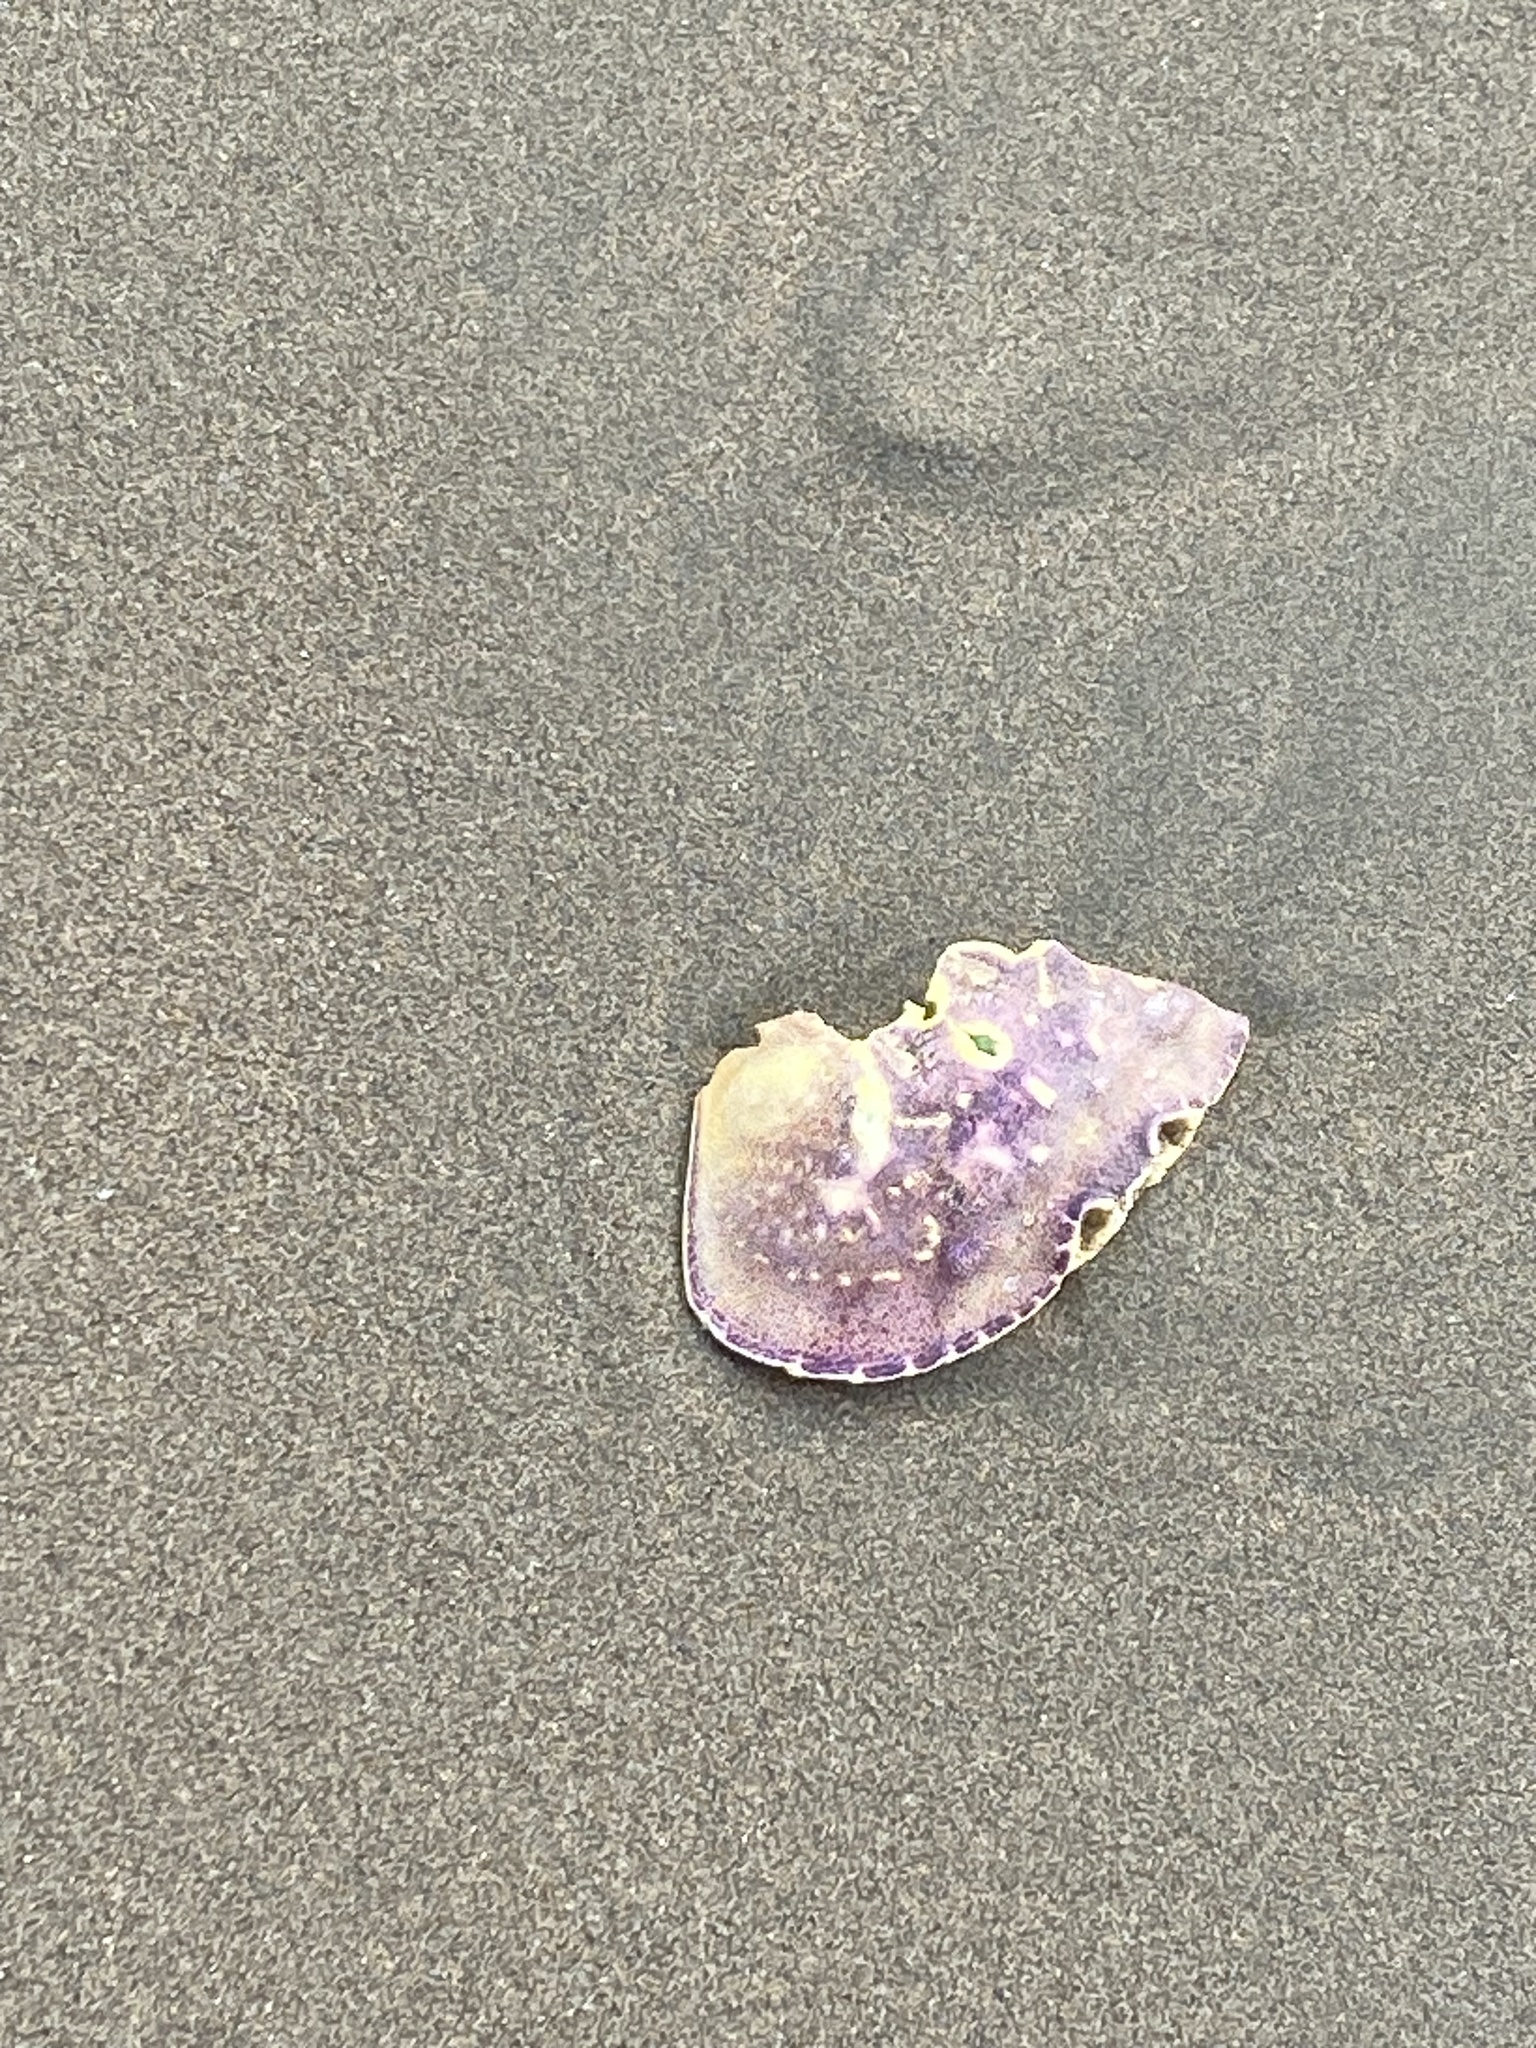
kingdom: Animalia
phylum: Arthropoda
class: Malacostraca
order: Decapoda
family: Cancridae
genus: Metacarcinus
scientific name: Metacarcinus magister
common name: Californian crab
